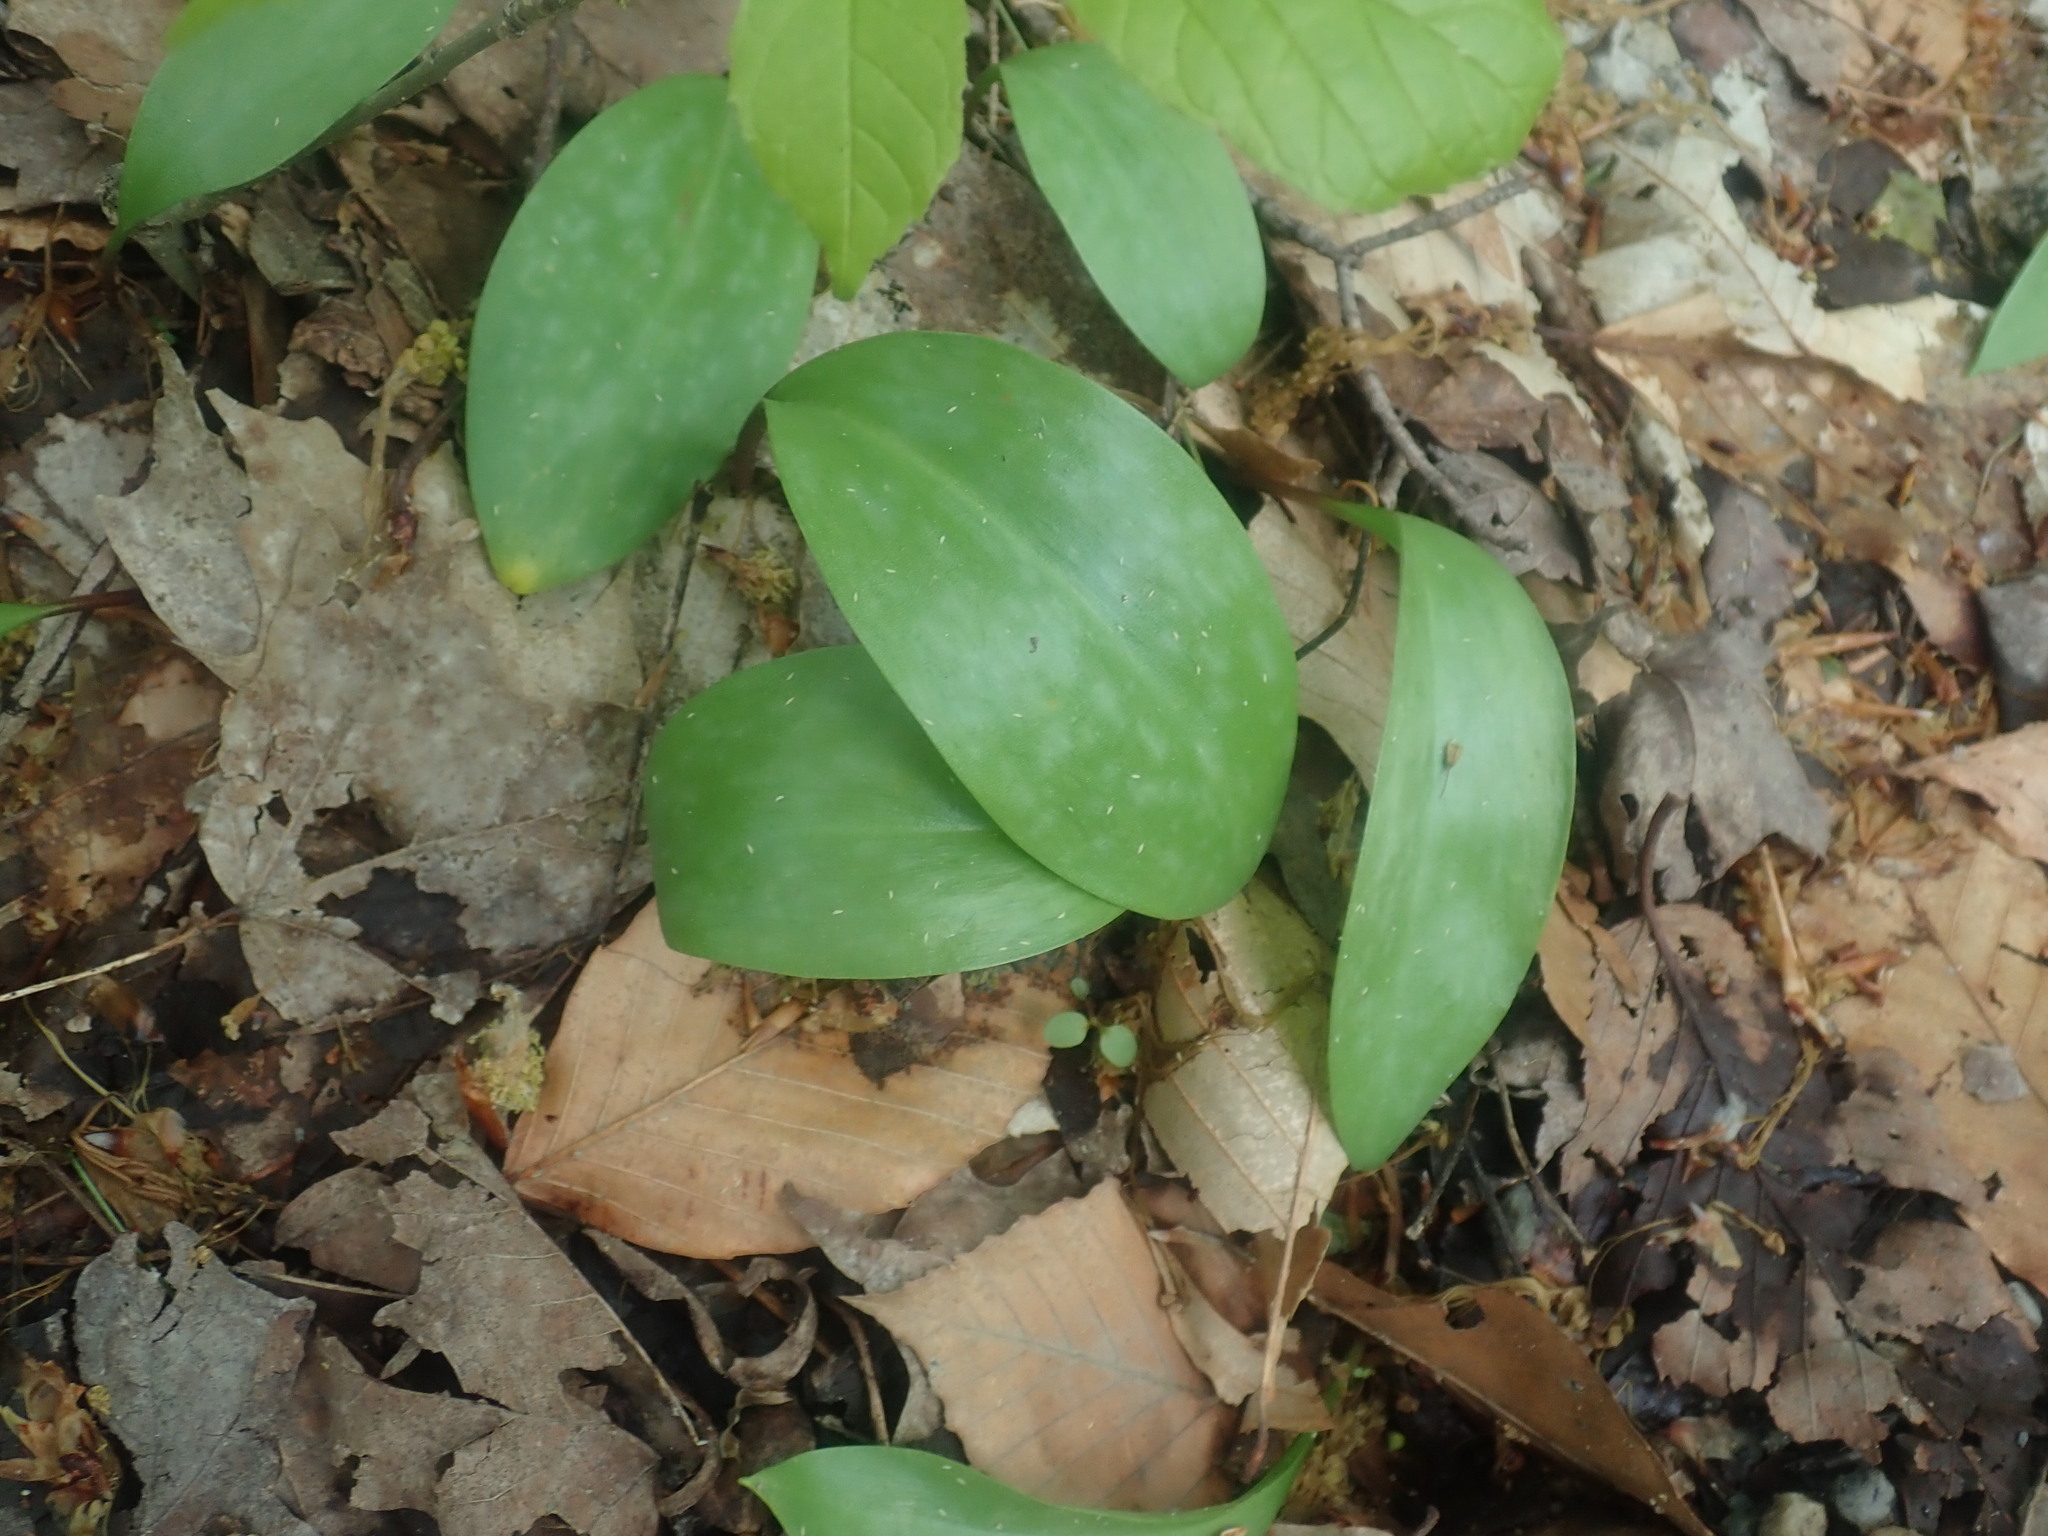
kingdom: Plantae
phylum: Tracheophyta
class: Liliopsida
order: Liliales
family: Liliaceae
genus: Erythronium
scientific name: Erythronium americanum
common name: Yellow adder's-tongue
